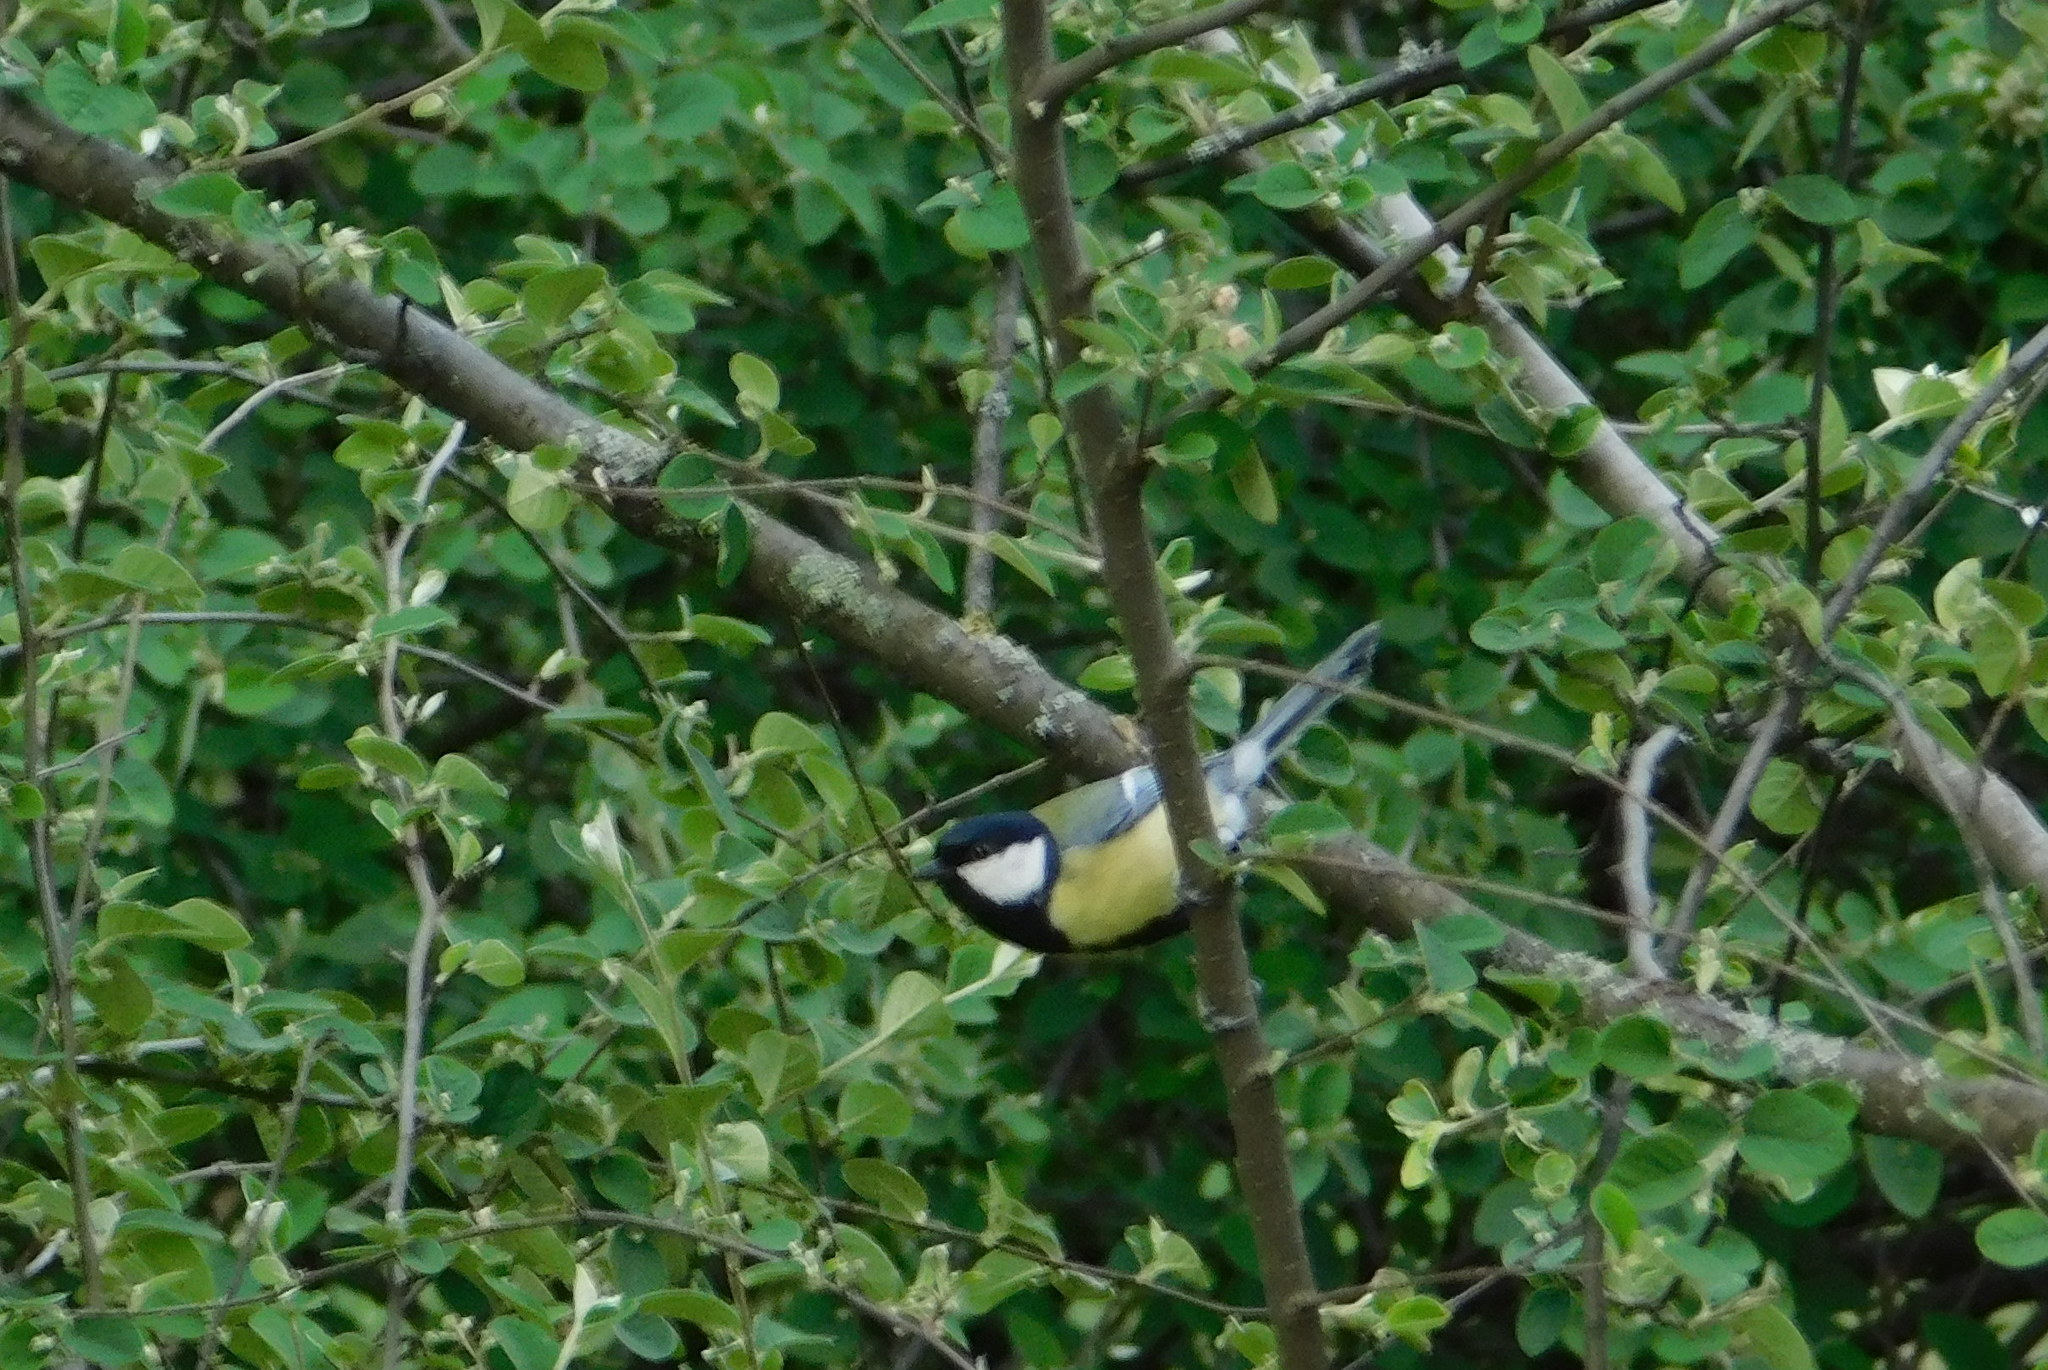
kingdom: Animalia
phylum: Chordata
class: Aves
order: Passeriformes
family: Paridae
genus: Parus
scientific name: Parus major
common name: Great tit
